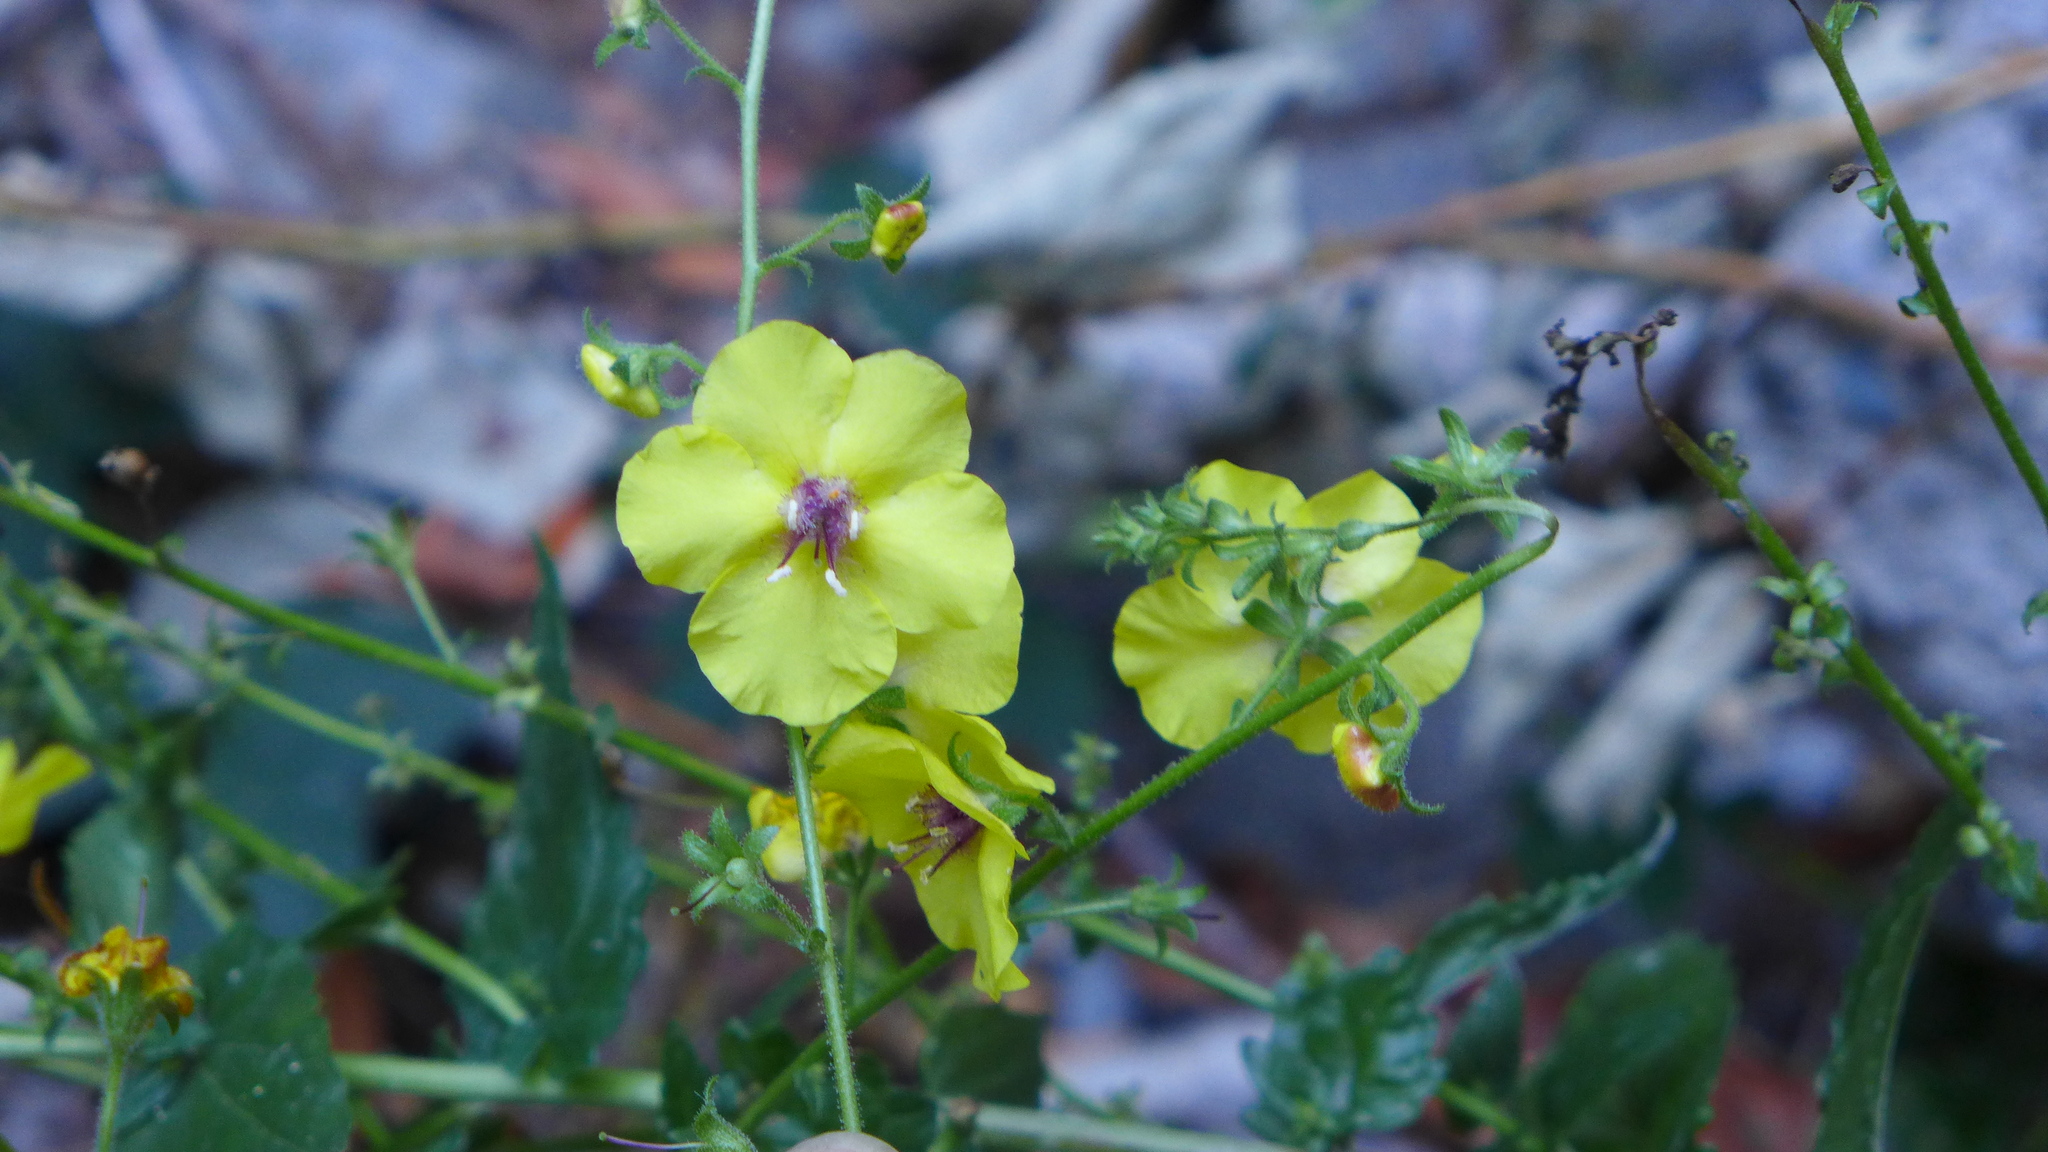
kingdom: Plantae
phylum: Tracheophyta
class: Magnoliopsida
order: Lamiales
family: Scrophulariaceae
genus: Verbascum
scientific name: Verbascum blattaria
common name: Moth mullein
